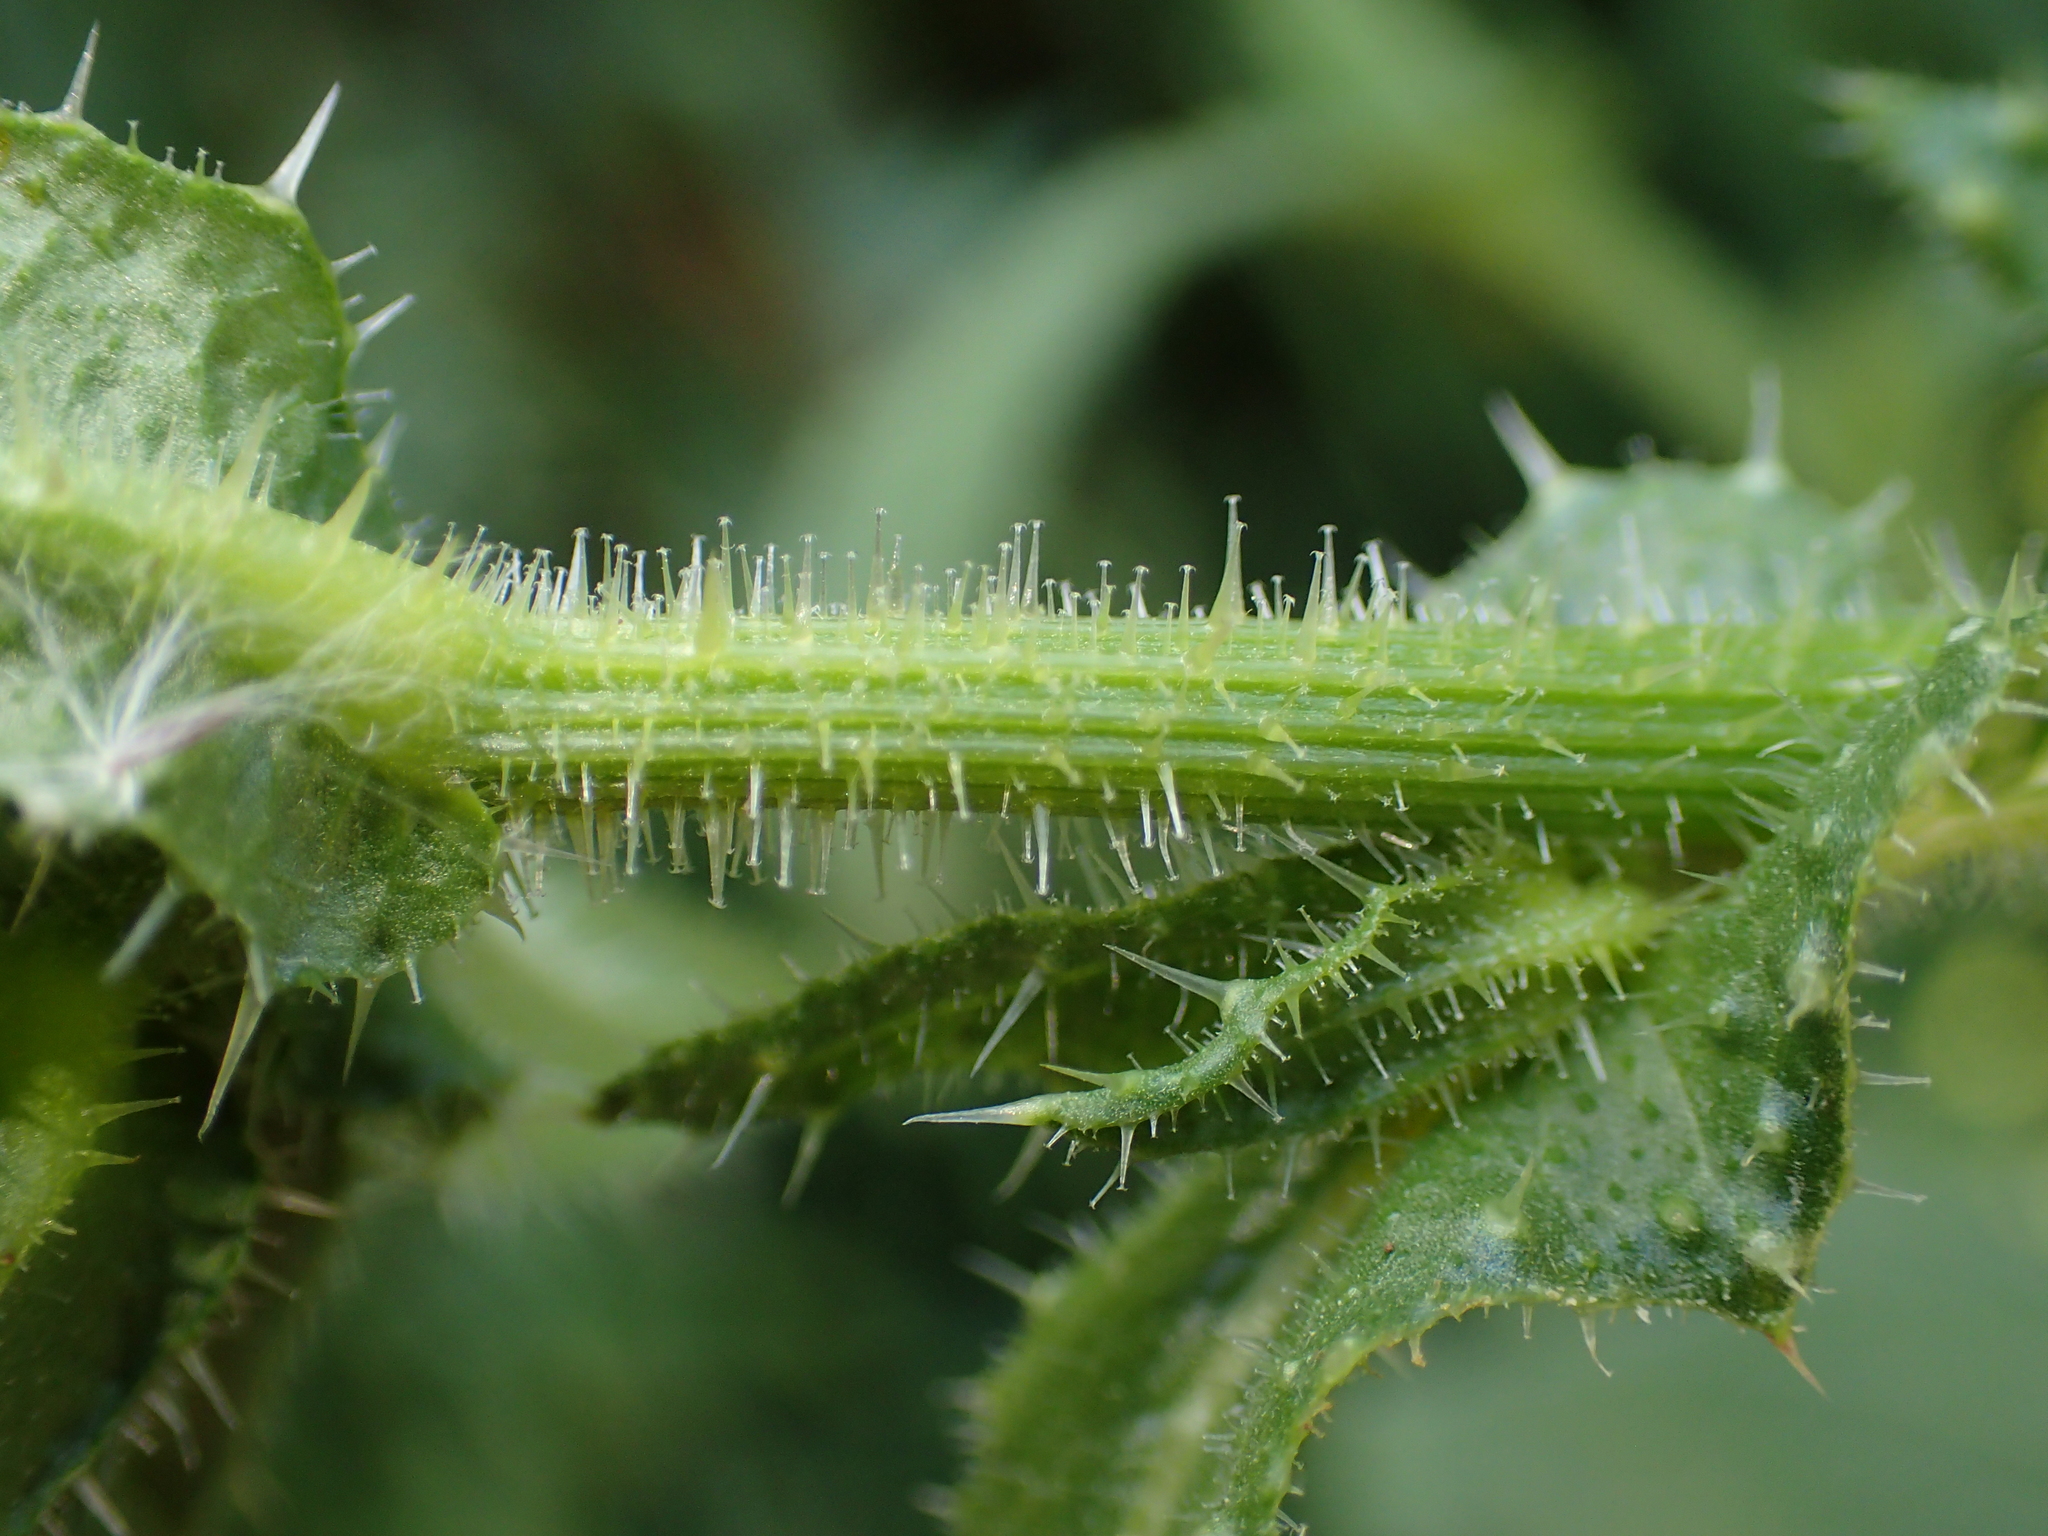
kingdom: Plantae
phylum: Tracheophyta
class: Magnoliopsida
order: Asterales
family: Asteraceae
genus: Helminthotheca
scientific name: Helminthotheca echioides
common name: Ox-tongue
